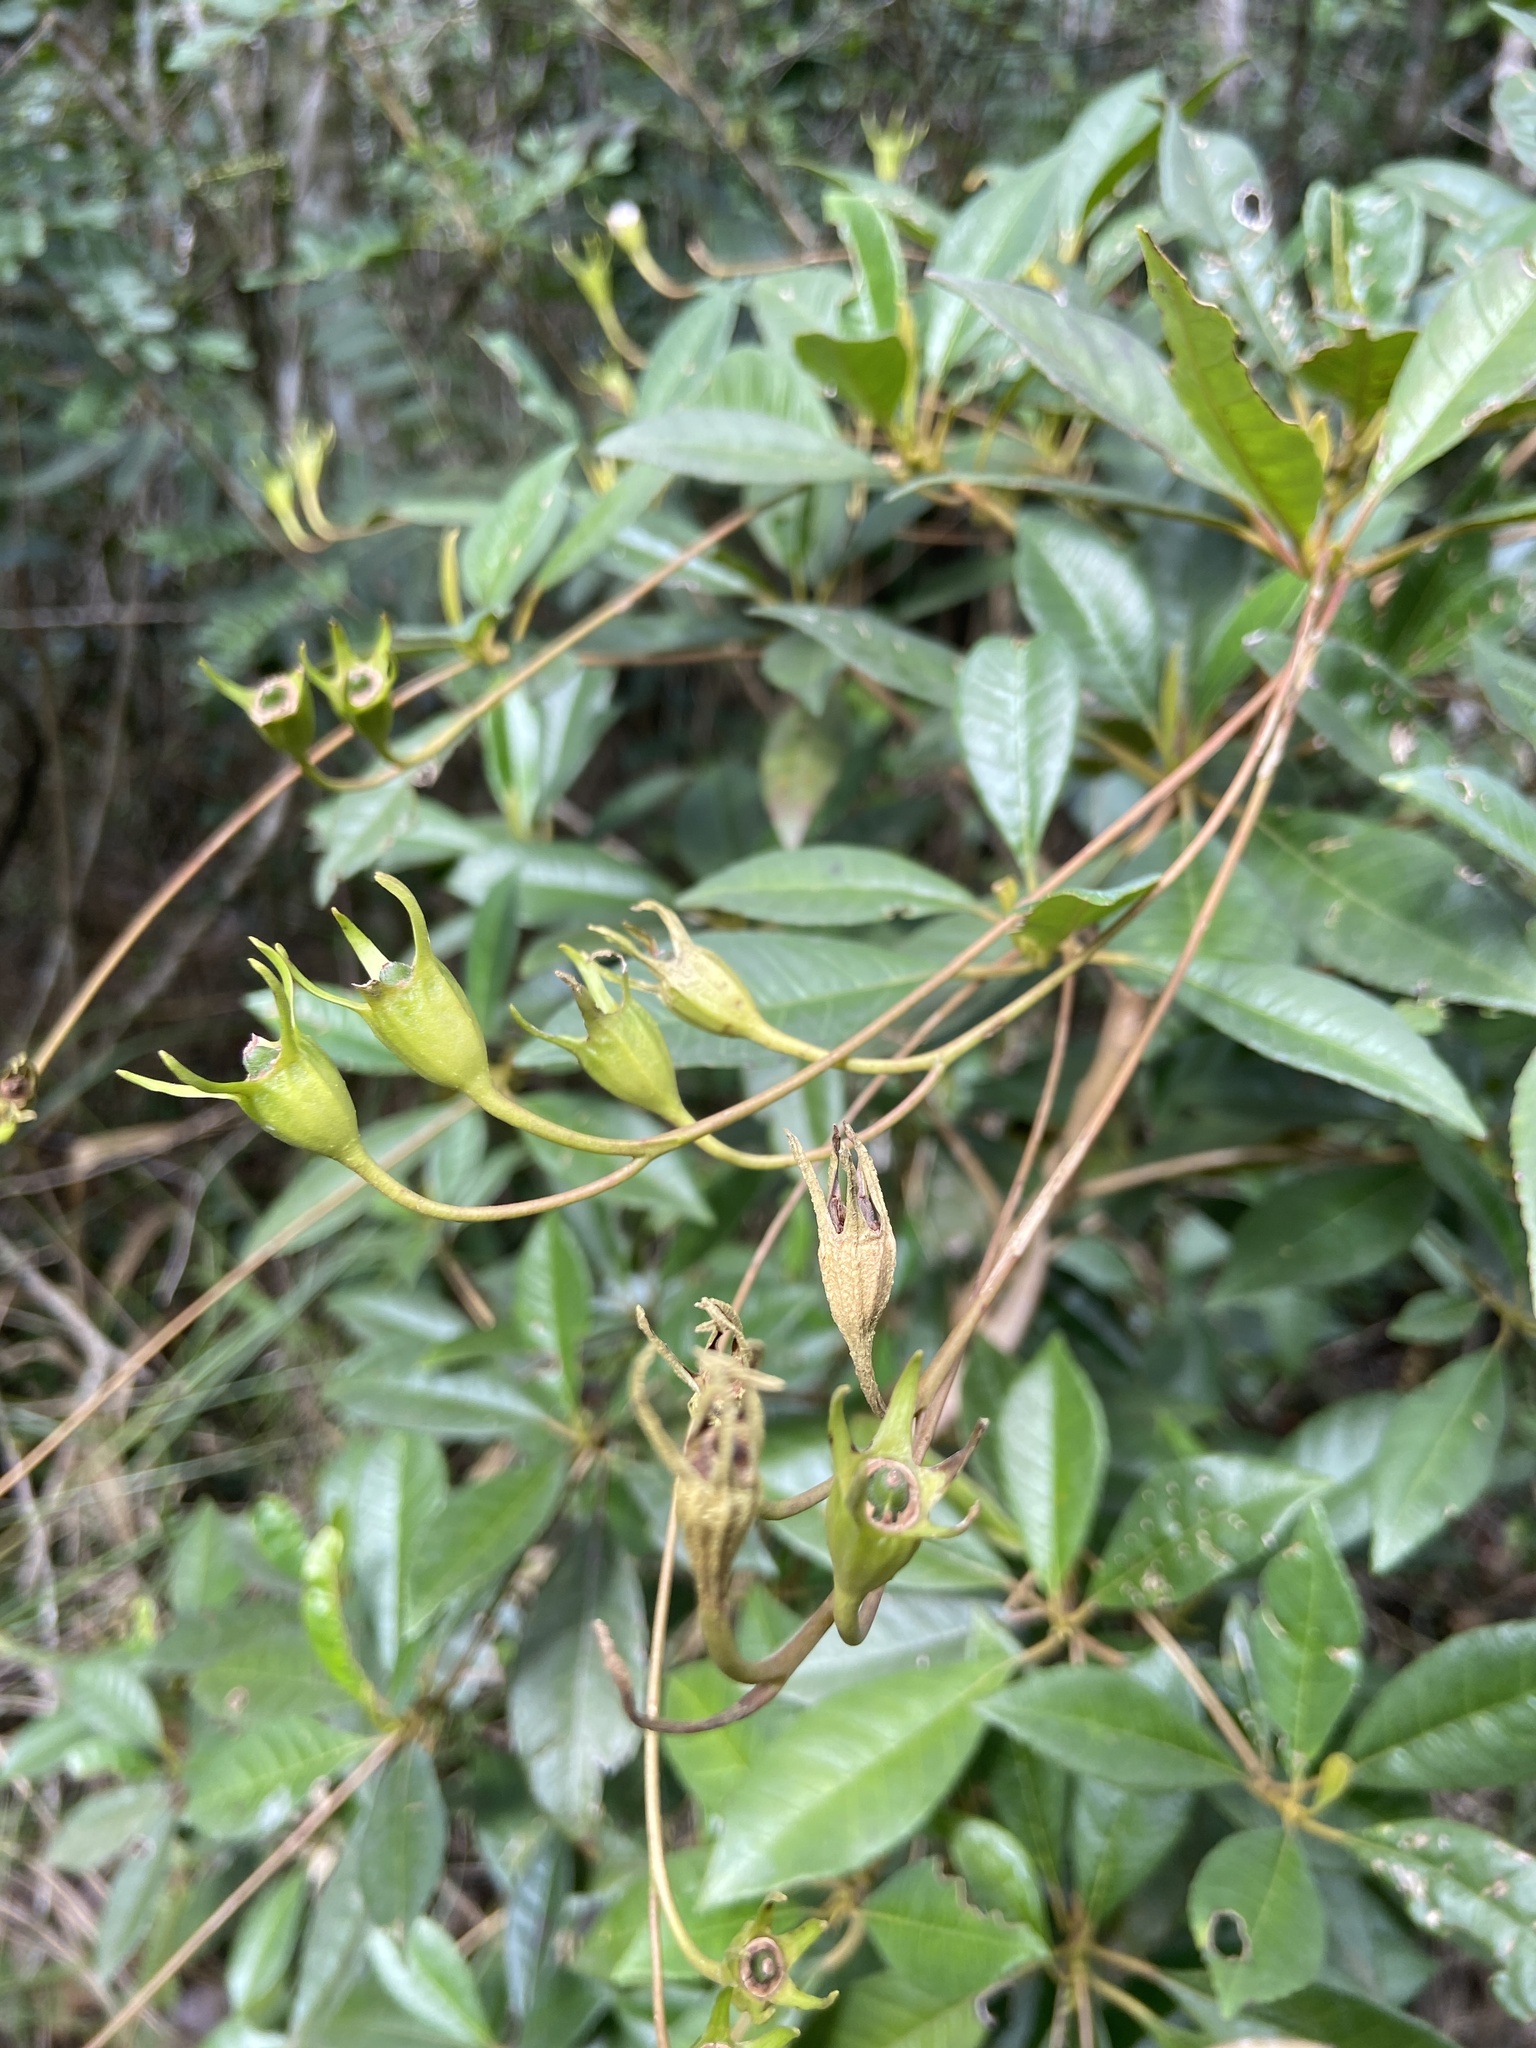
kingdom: Plantae
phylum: Tracheophyta
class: Magnoliopsida
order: Lamiales
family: Gesneriaceae
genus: Gesneria
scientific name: Gesneria pedunculosa
